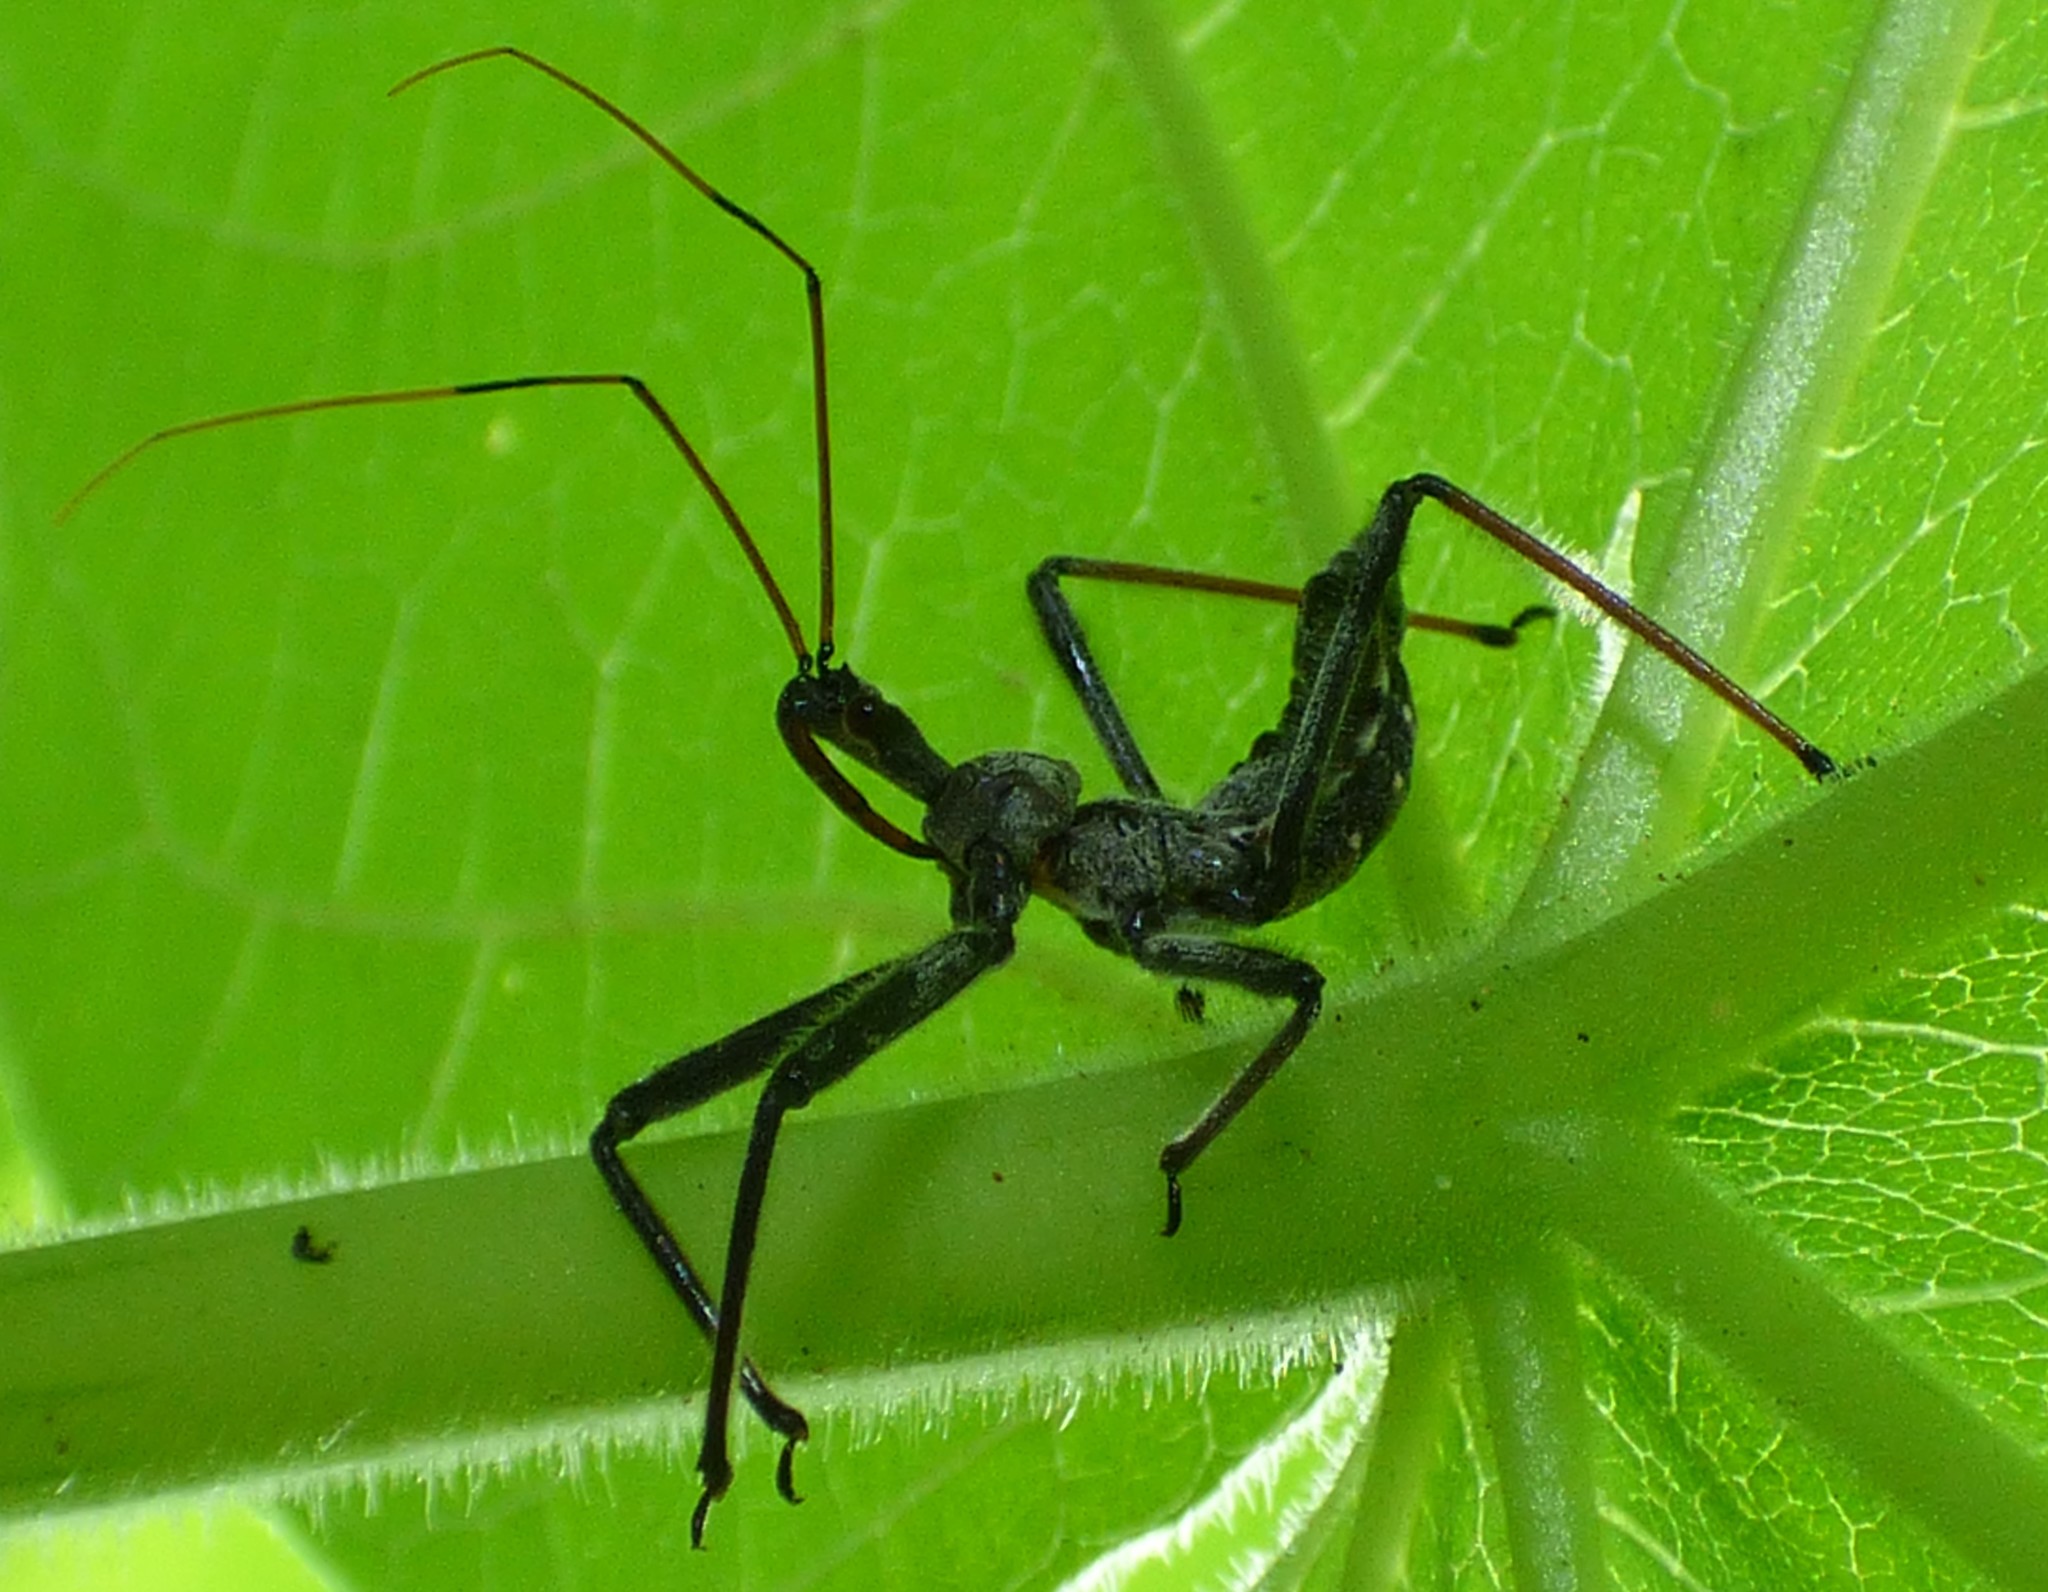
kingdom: Animalia
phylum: Arthropoda
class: Insecta
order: Hemiptera
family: Reduviidae
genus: Arilus
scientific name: Arilus cristatus
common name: North american wheel bug
